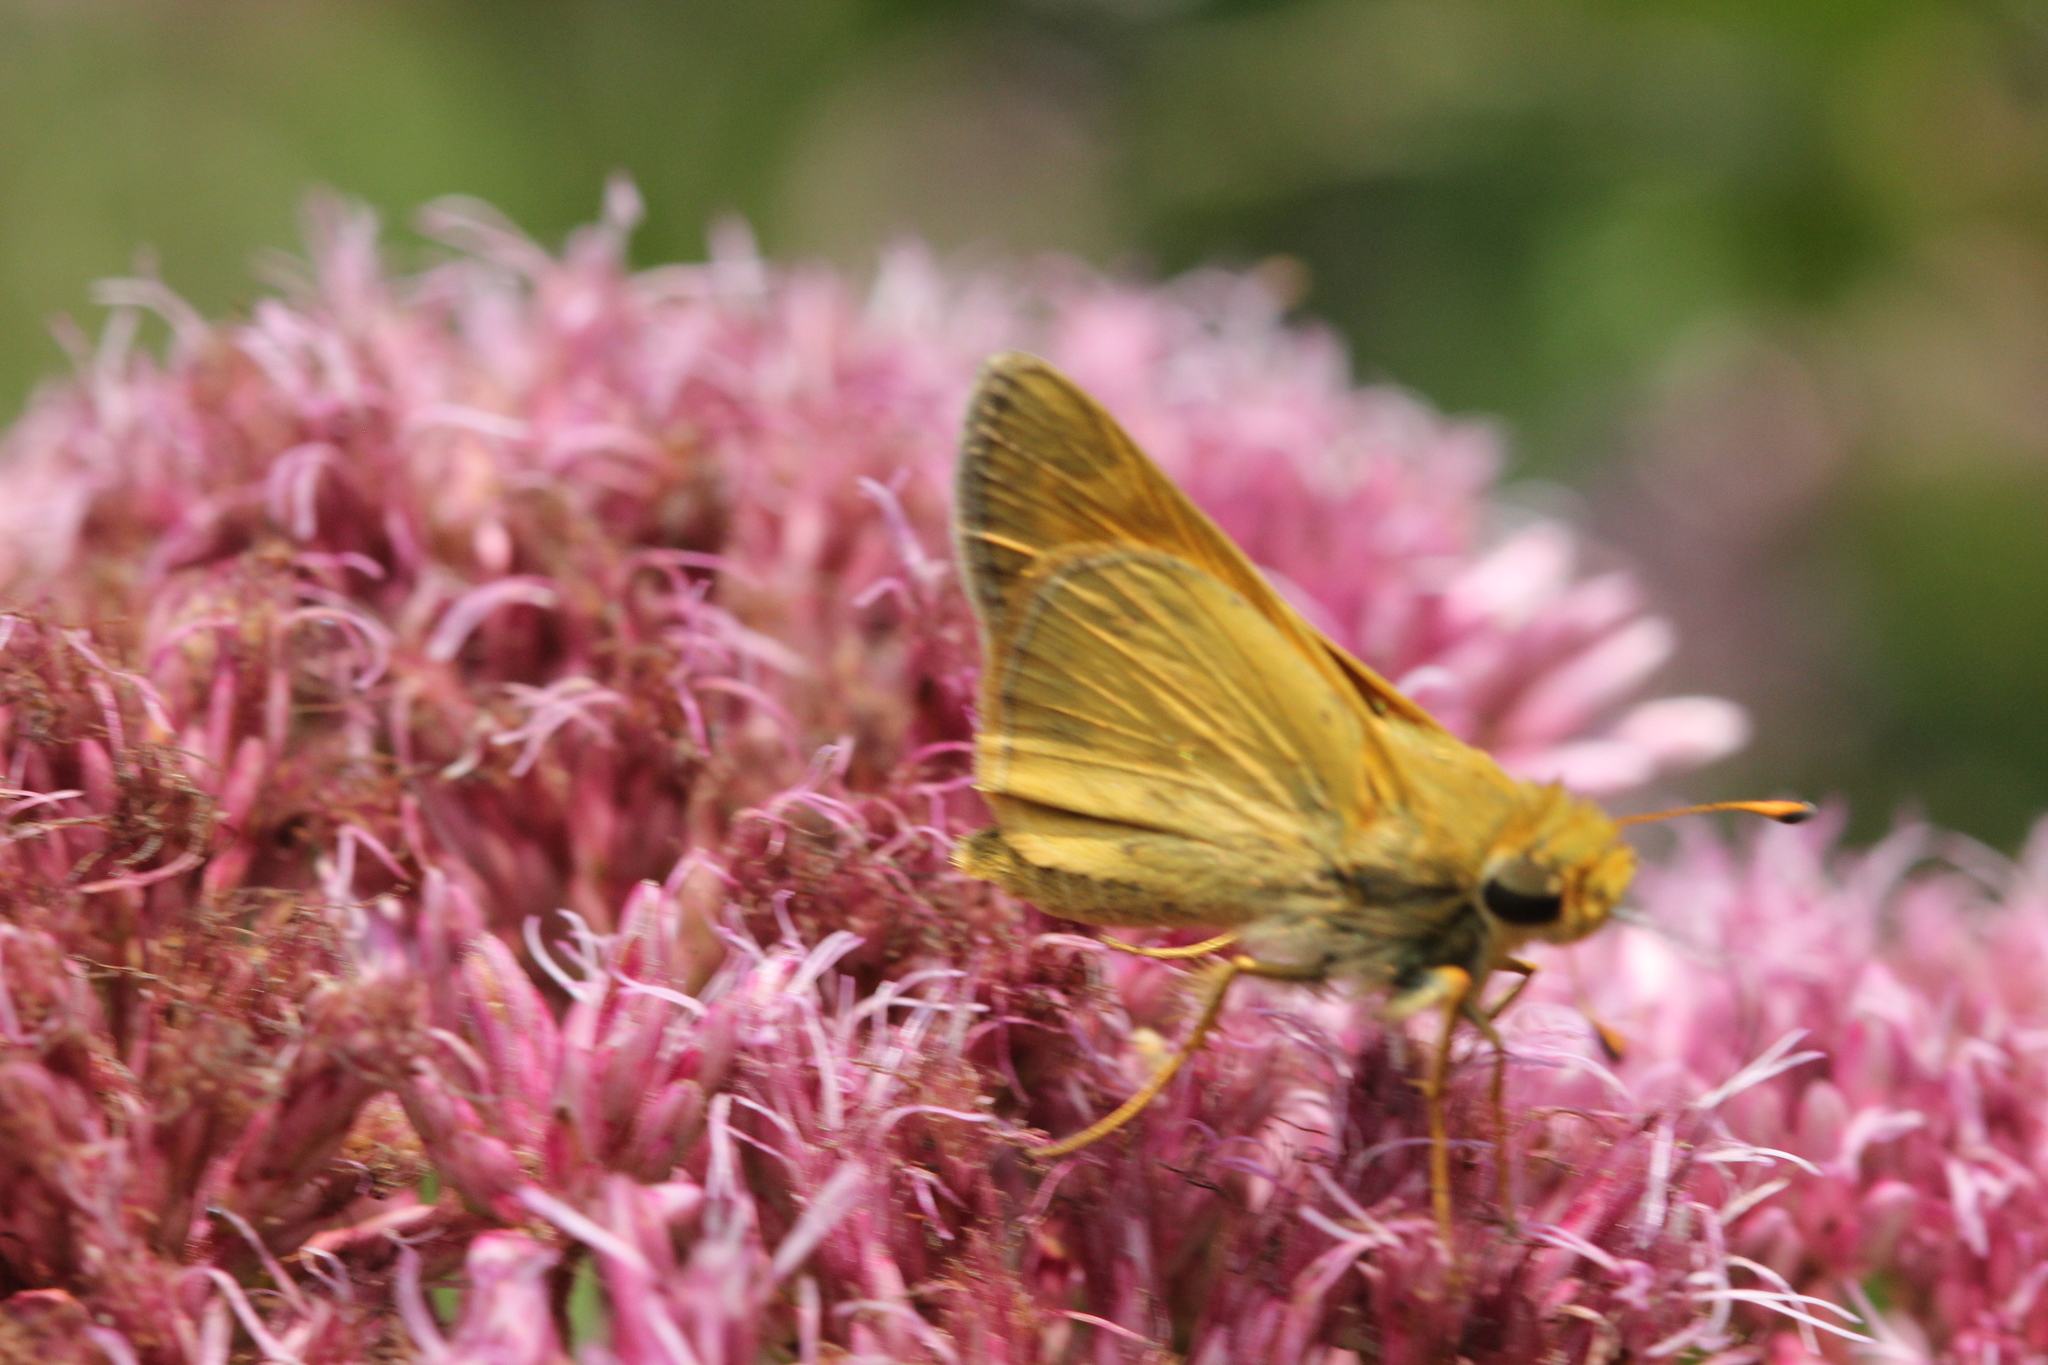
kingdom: Animalia
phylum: Arthropoda
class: Insecta
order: Lepidoptera
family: Hesperiidae
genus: Atalopedes
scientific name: Atalopedes
